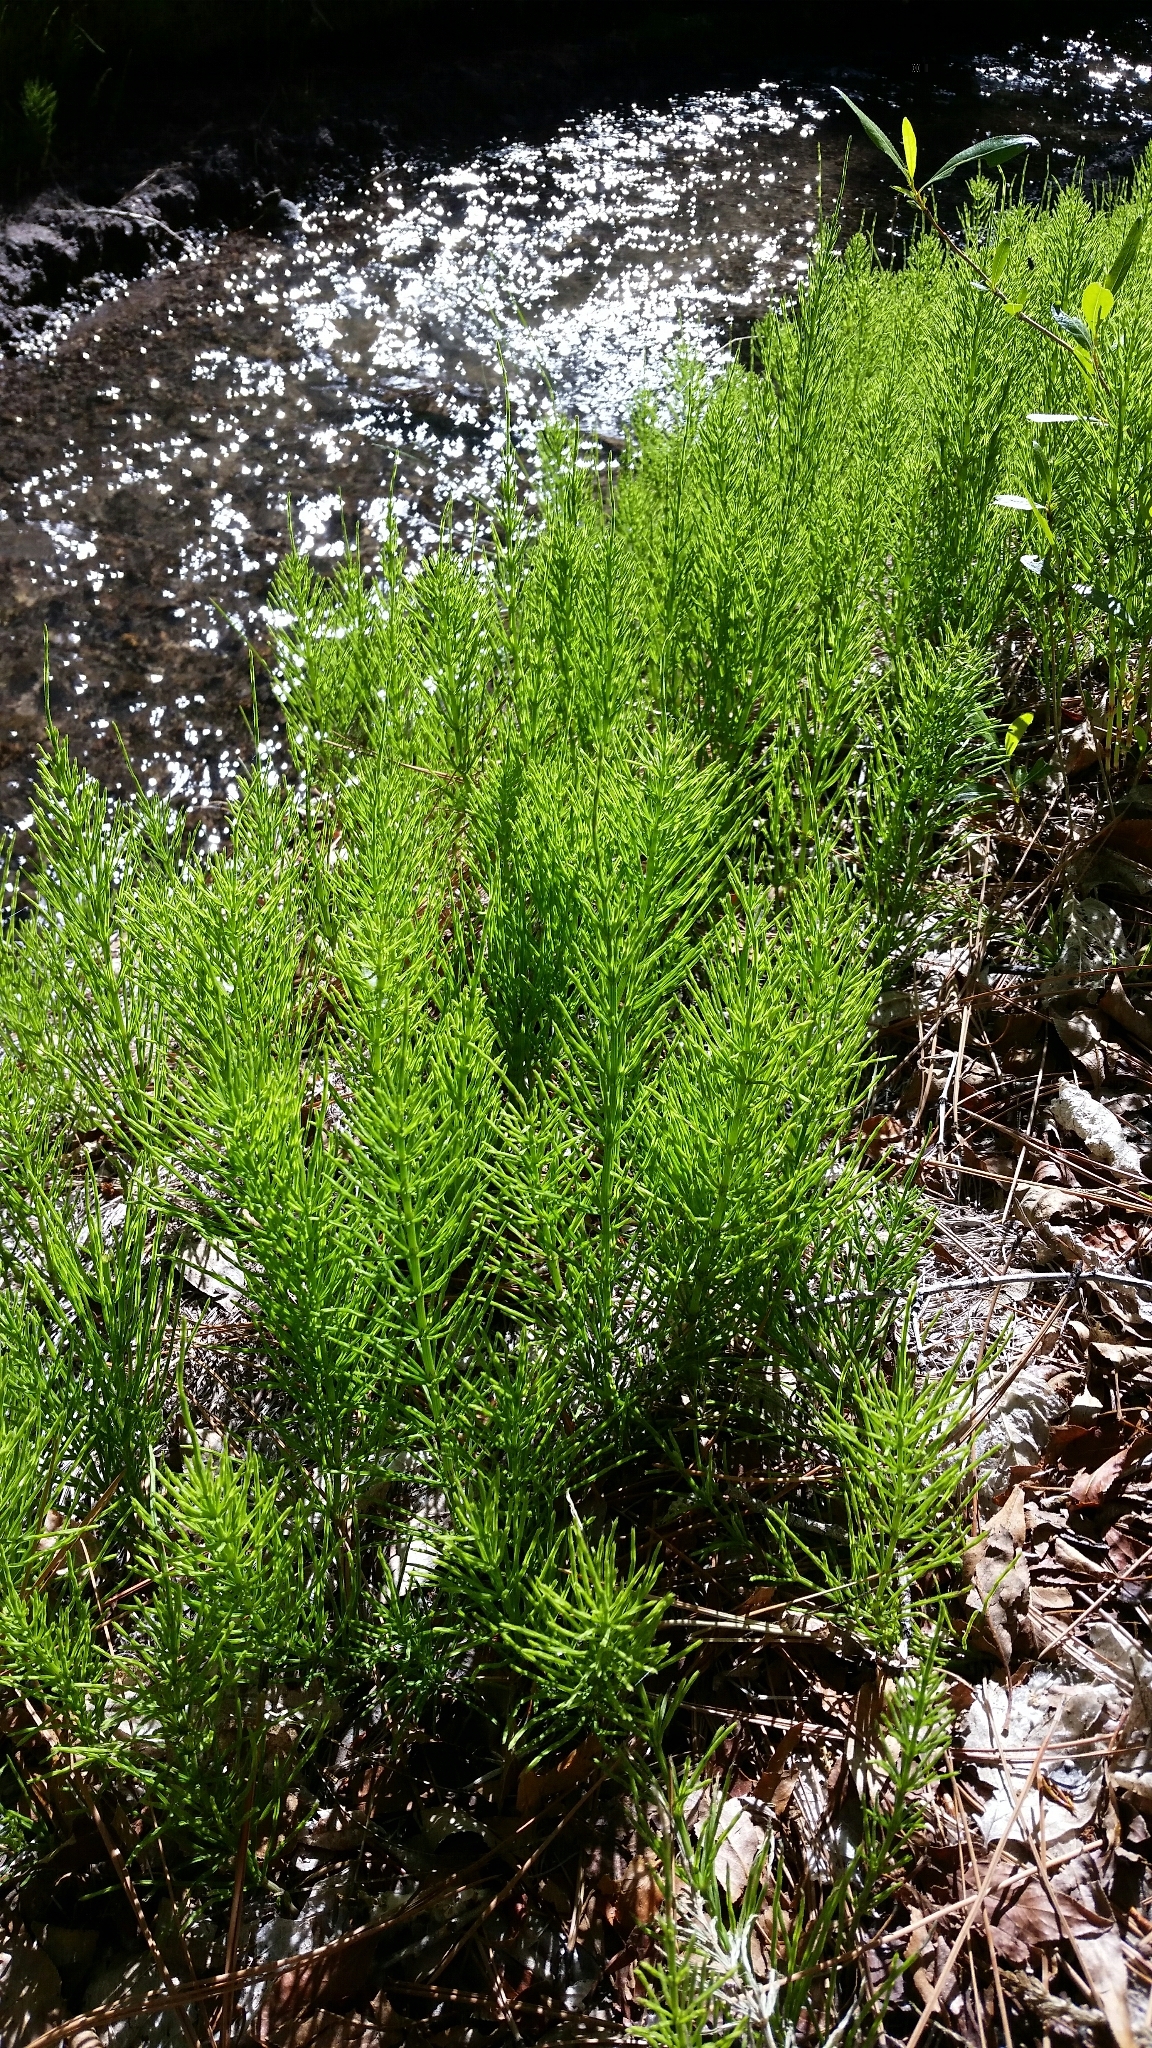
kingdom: Plantae
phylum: Tracheophyta
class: Polypodiopsida
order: Equisetales
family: Equisetaceae
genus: Equisetum
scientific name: Equisetum arvense
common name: Field horsetail
